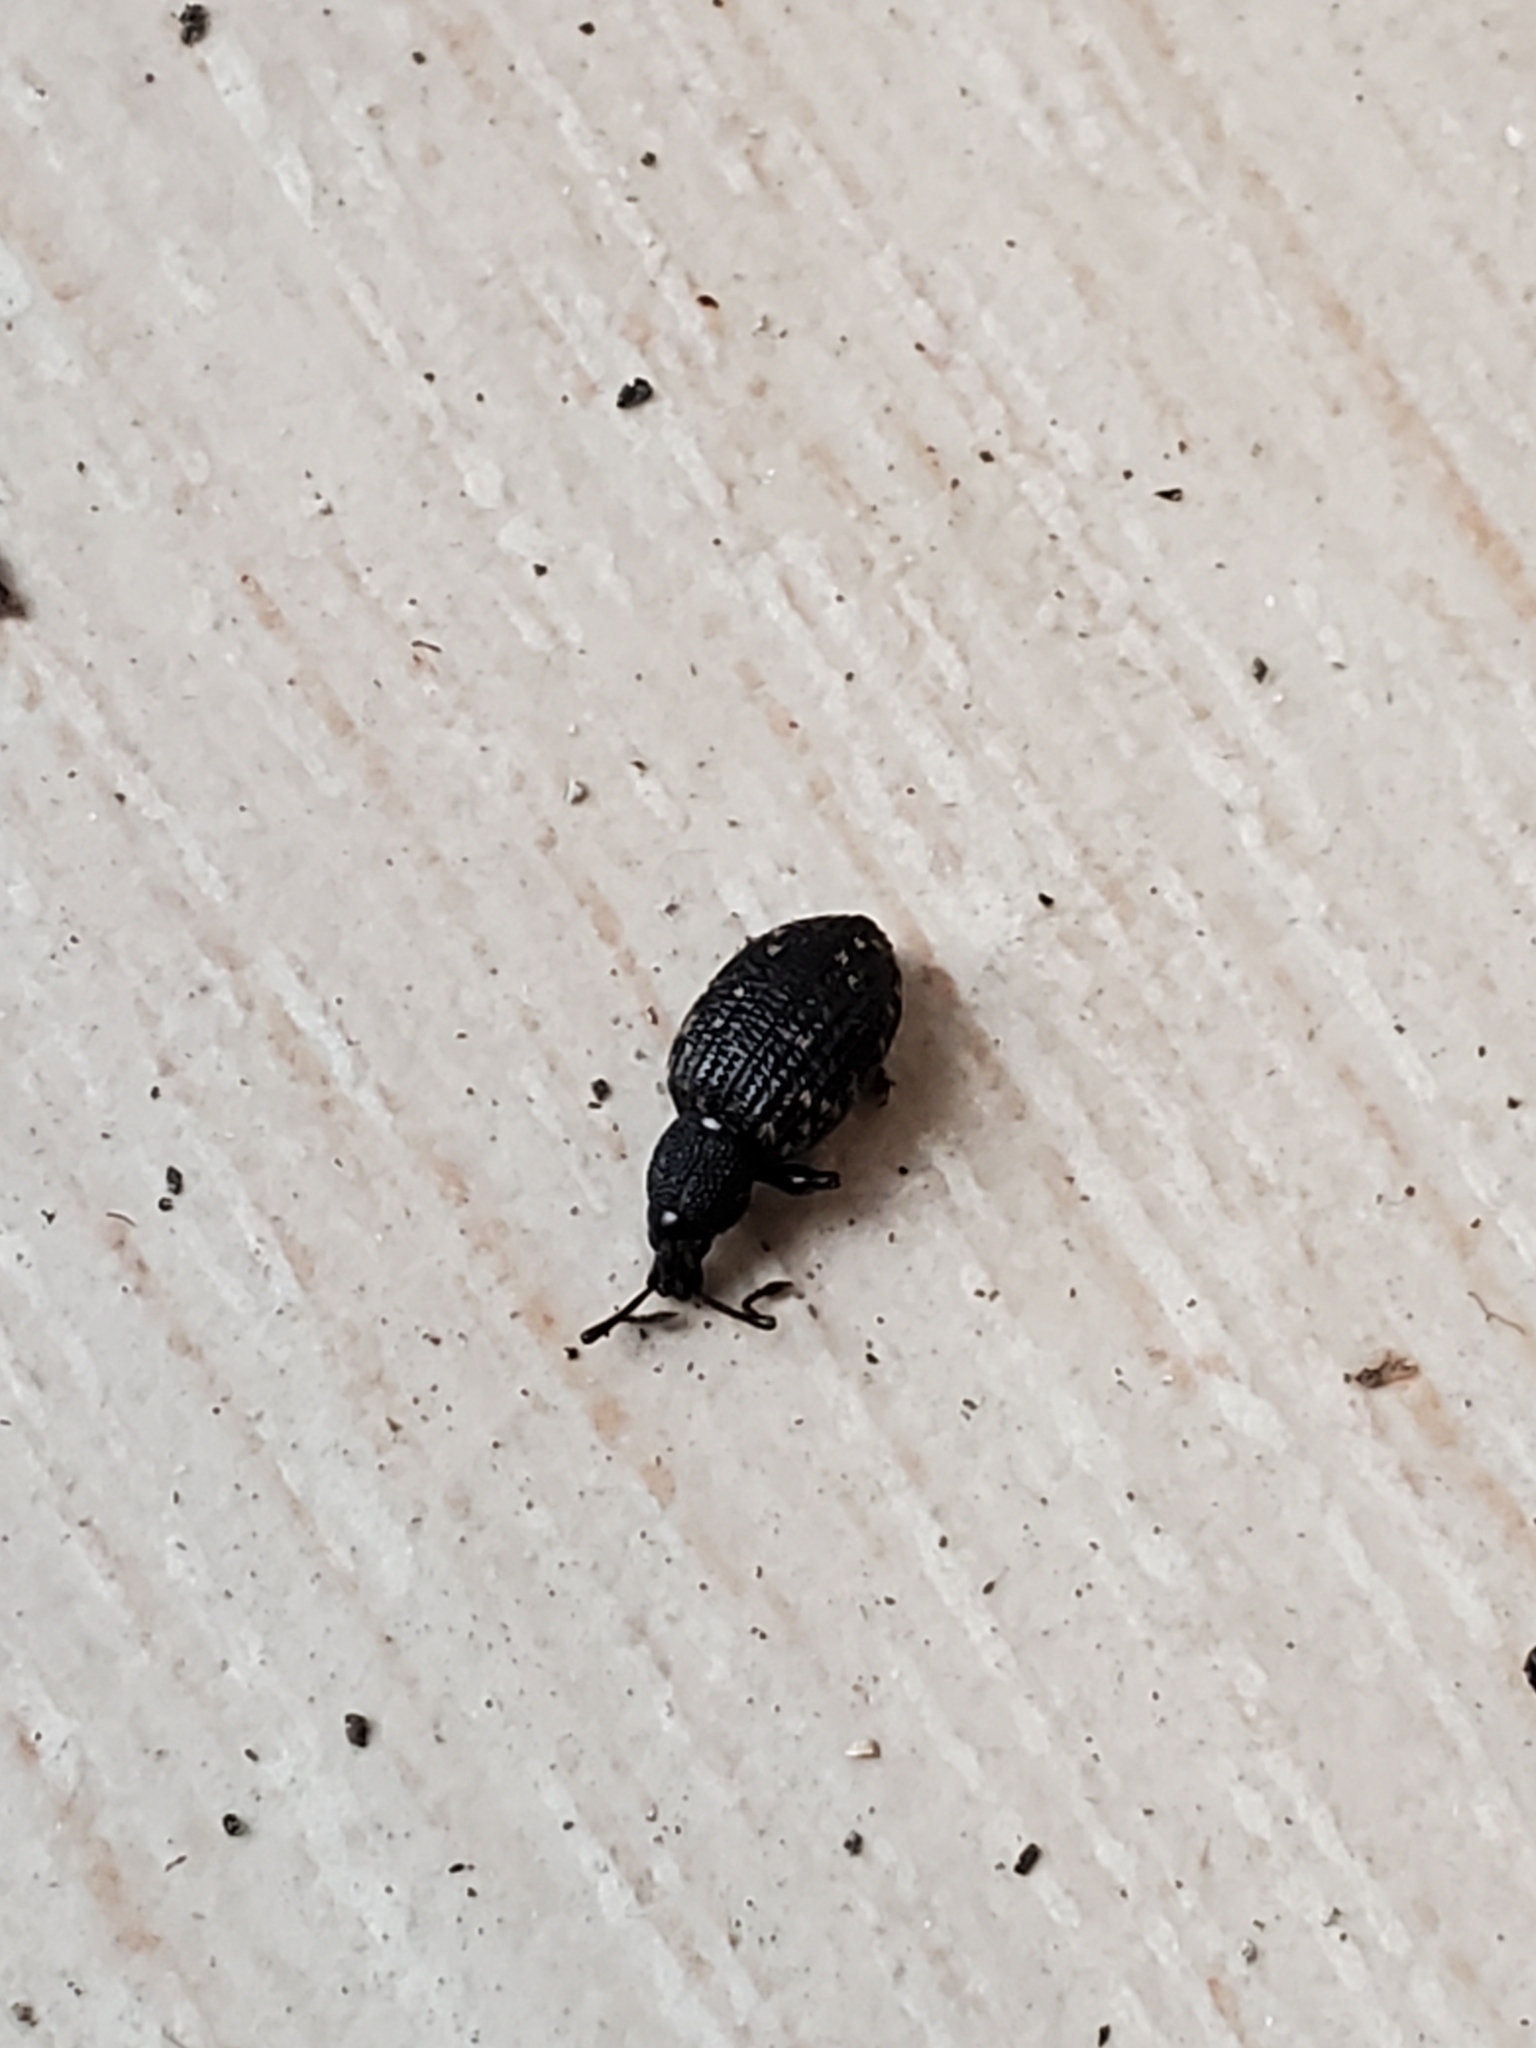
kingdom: Animalia
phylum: Arthropoda
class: Insecta
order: Coleoptera
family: Curculionidae
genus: Otiorhynchus
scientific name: Otiorhynchus sulcatus
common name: Black vine weevil
